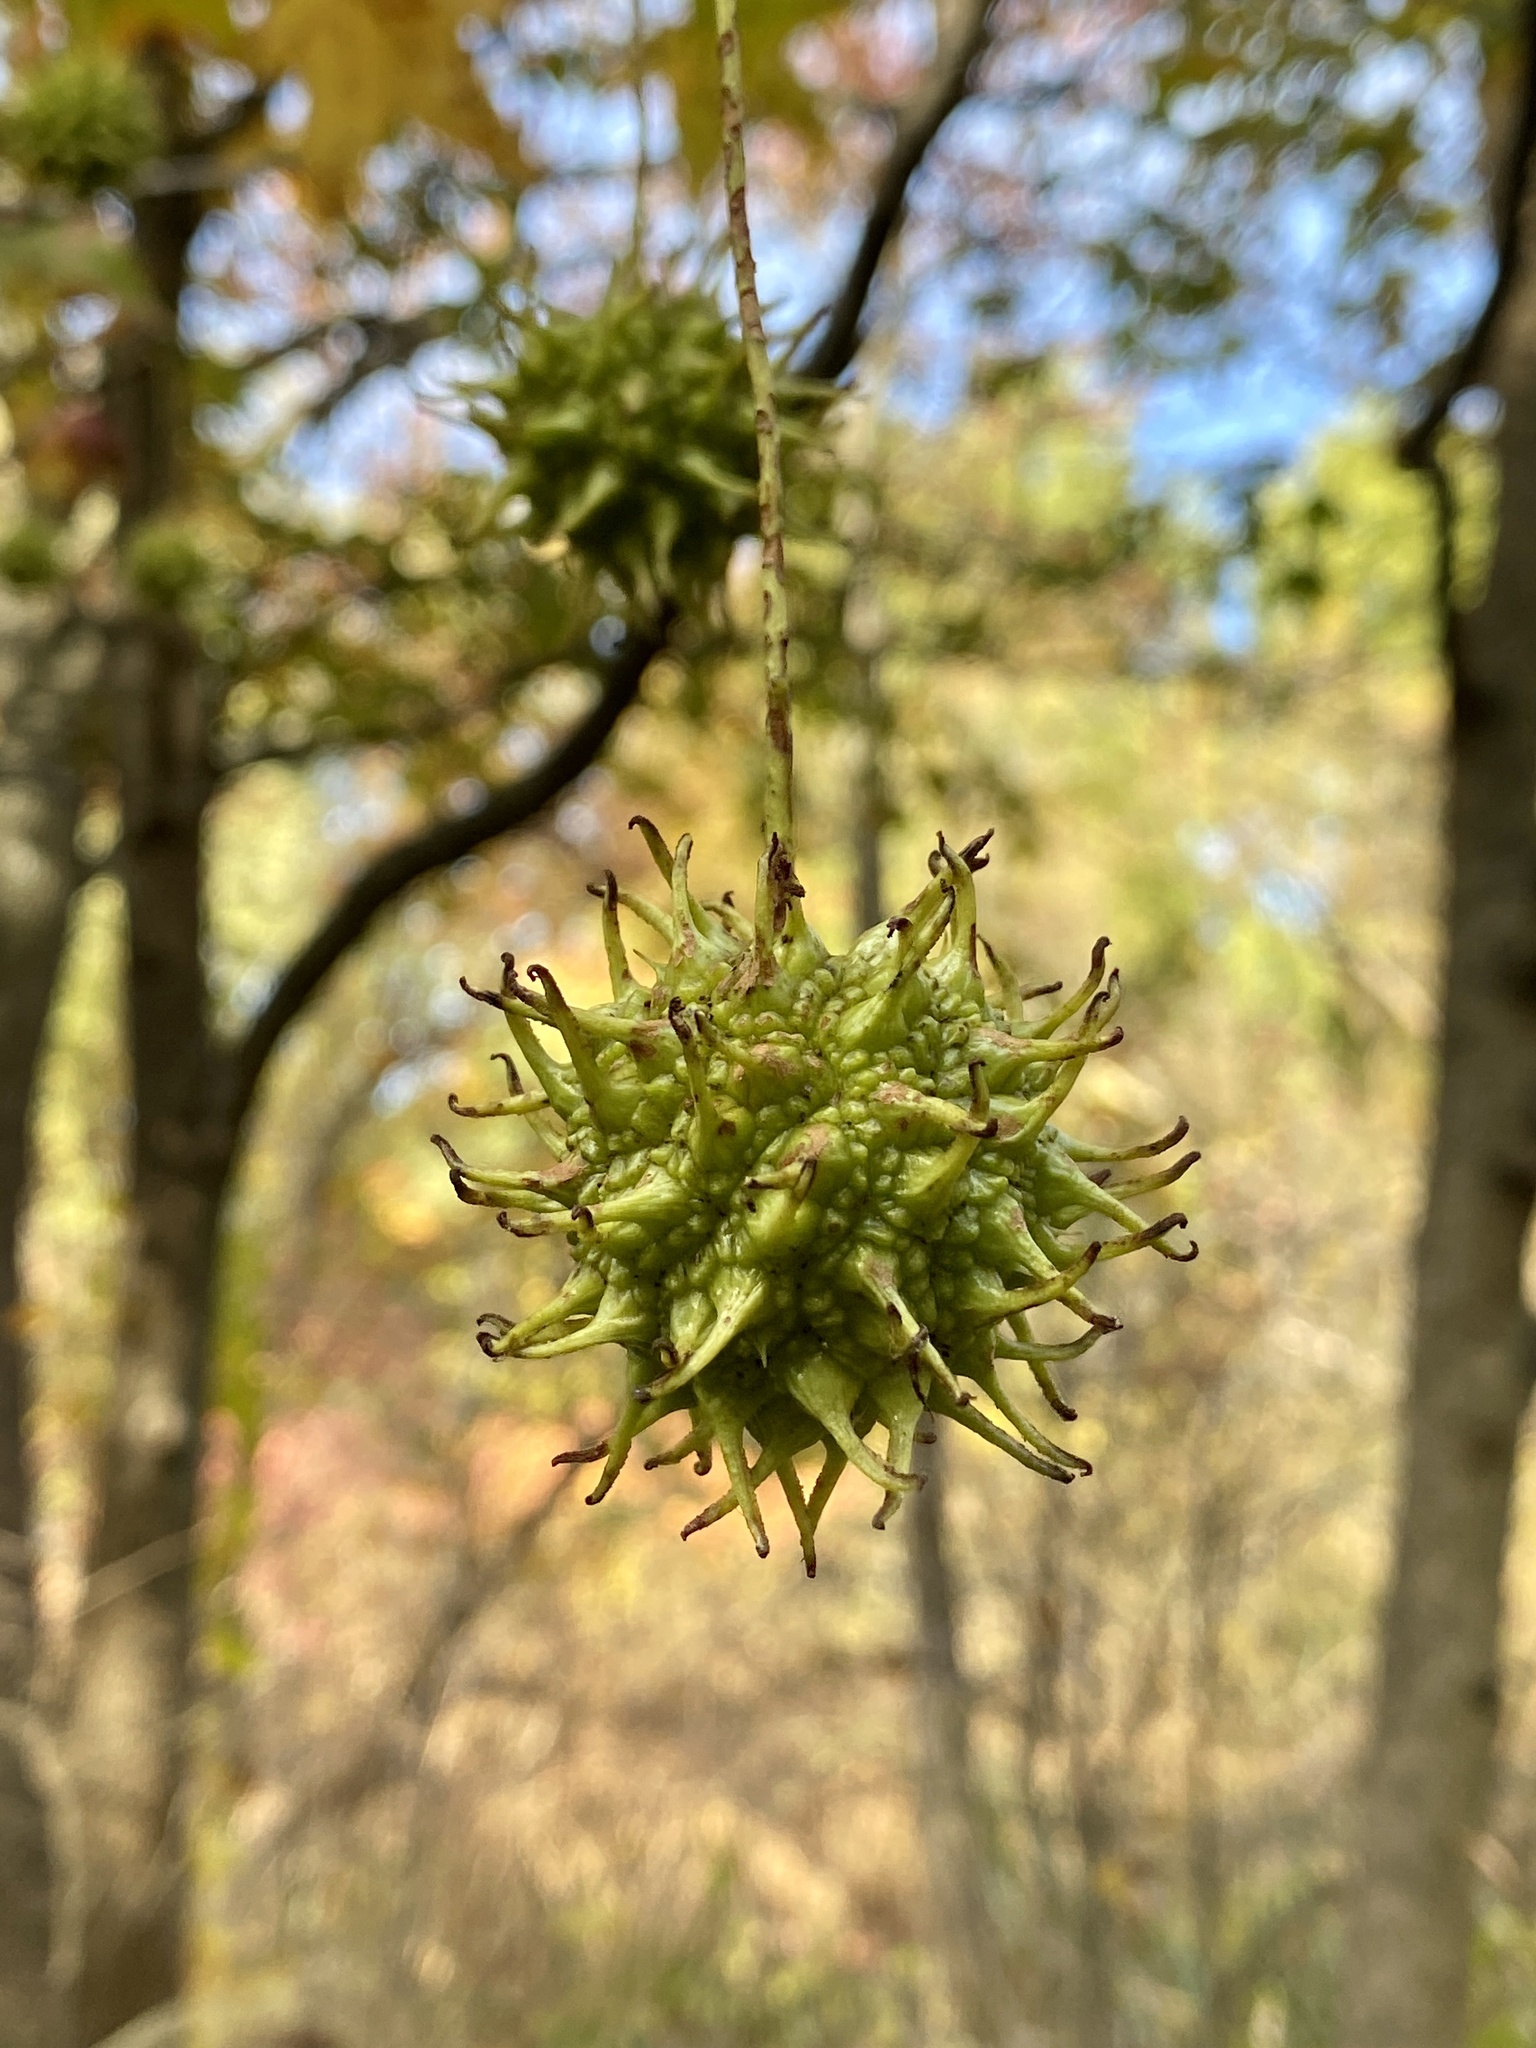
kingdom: Plantae
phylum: Tracheophyta
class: Magnoliopsida
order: Saxifragales
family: Altingiaceae
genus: Liquidambar
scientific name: Liquidambar styraciflua
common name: Sweet gum
